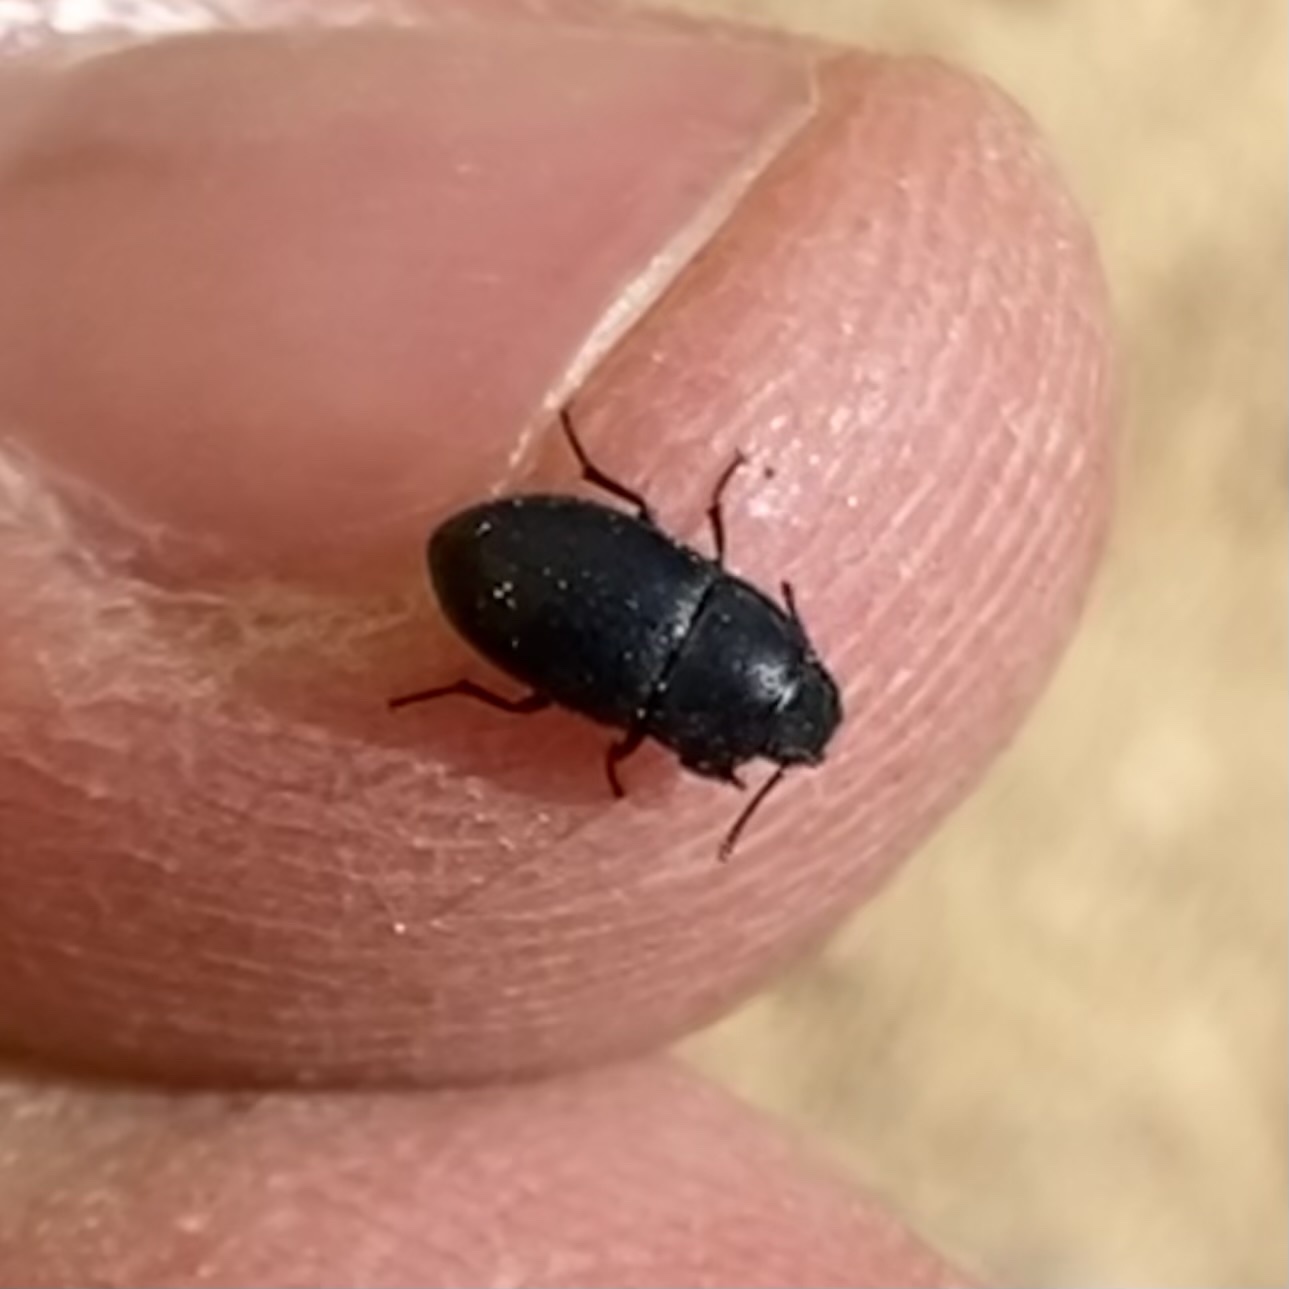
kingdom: Animalia
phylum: Arthropoda
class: Insecta
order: Coleoptera
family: Tenebrionidae
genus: Blapstinus
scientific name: Blapstinus
